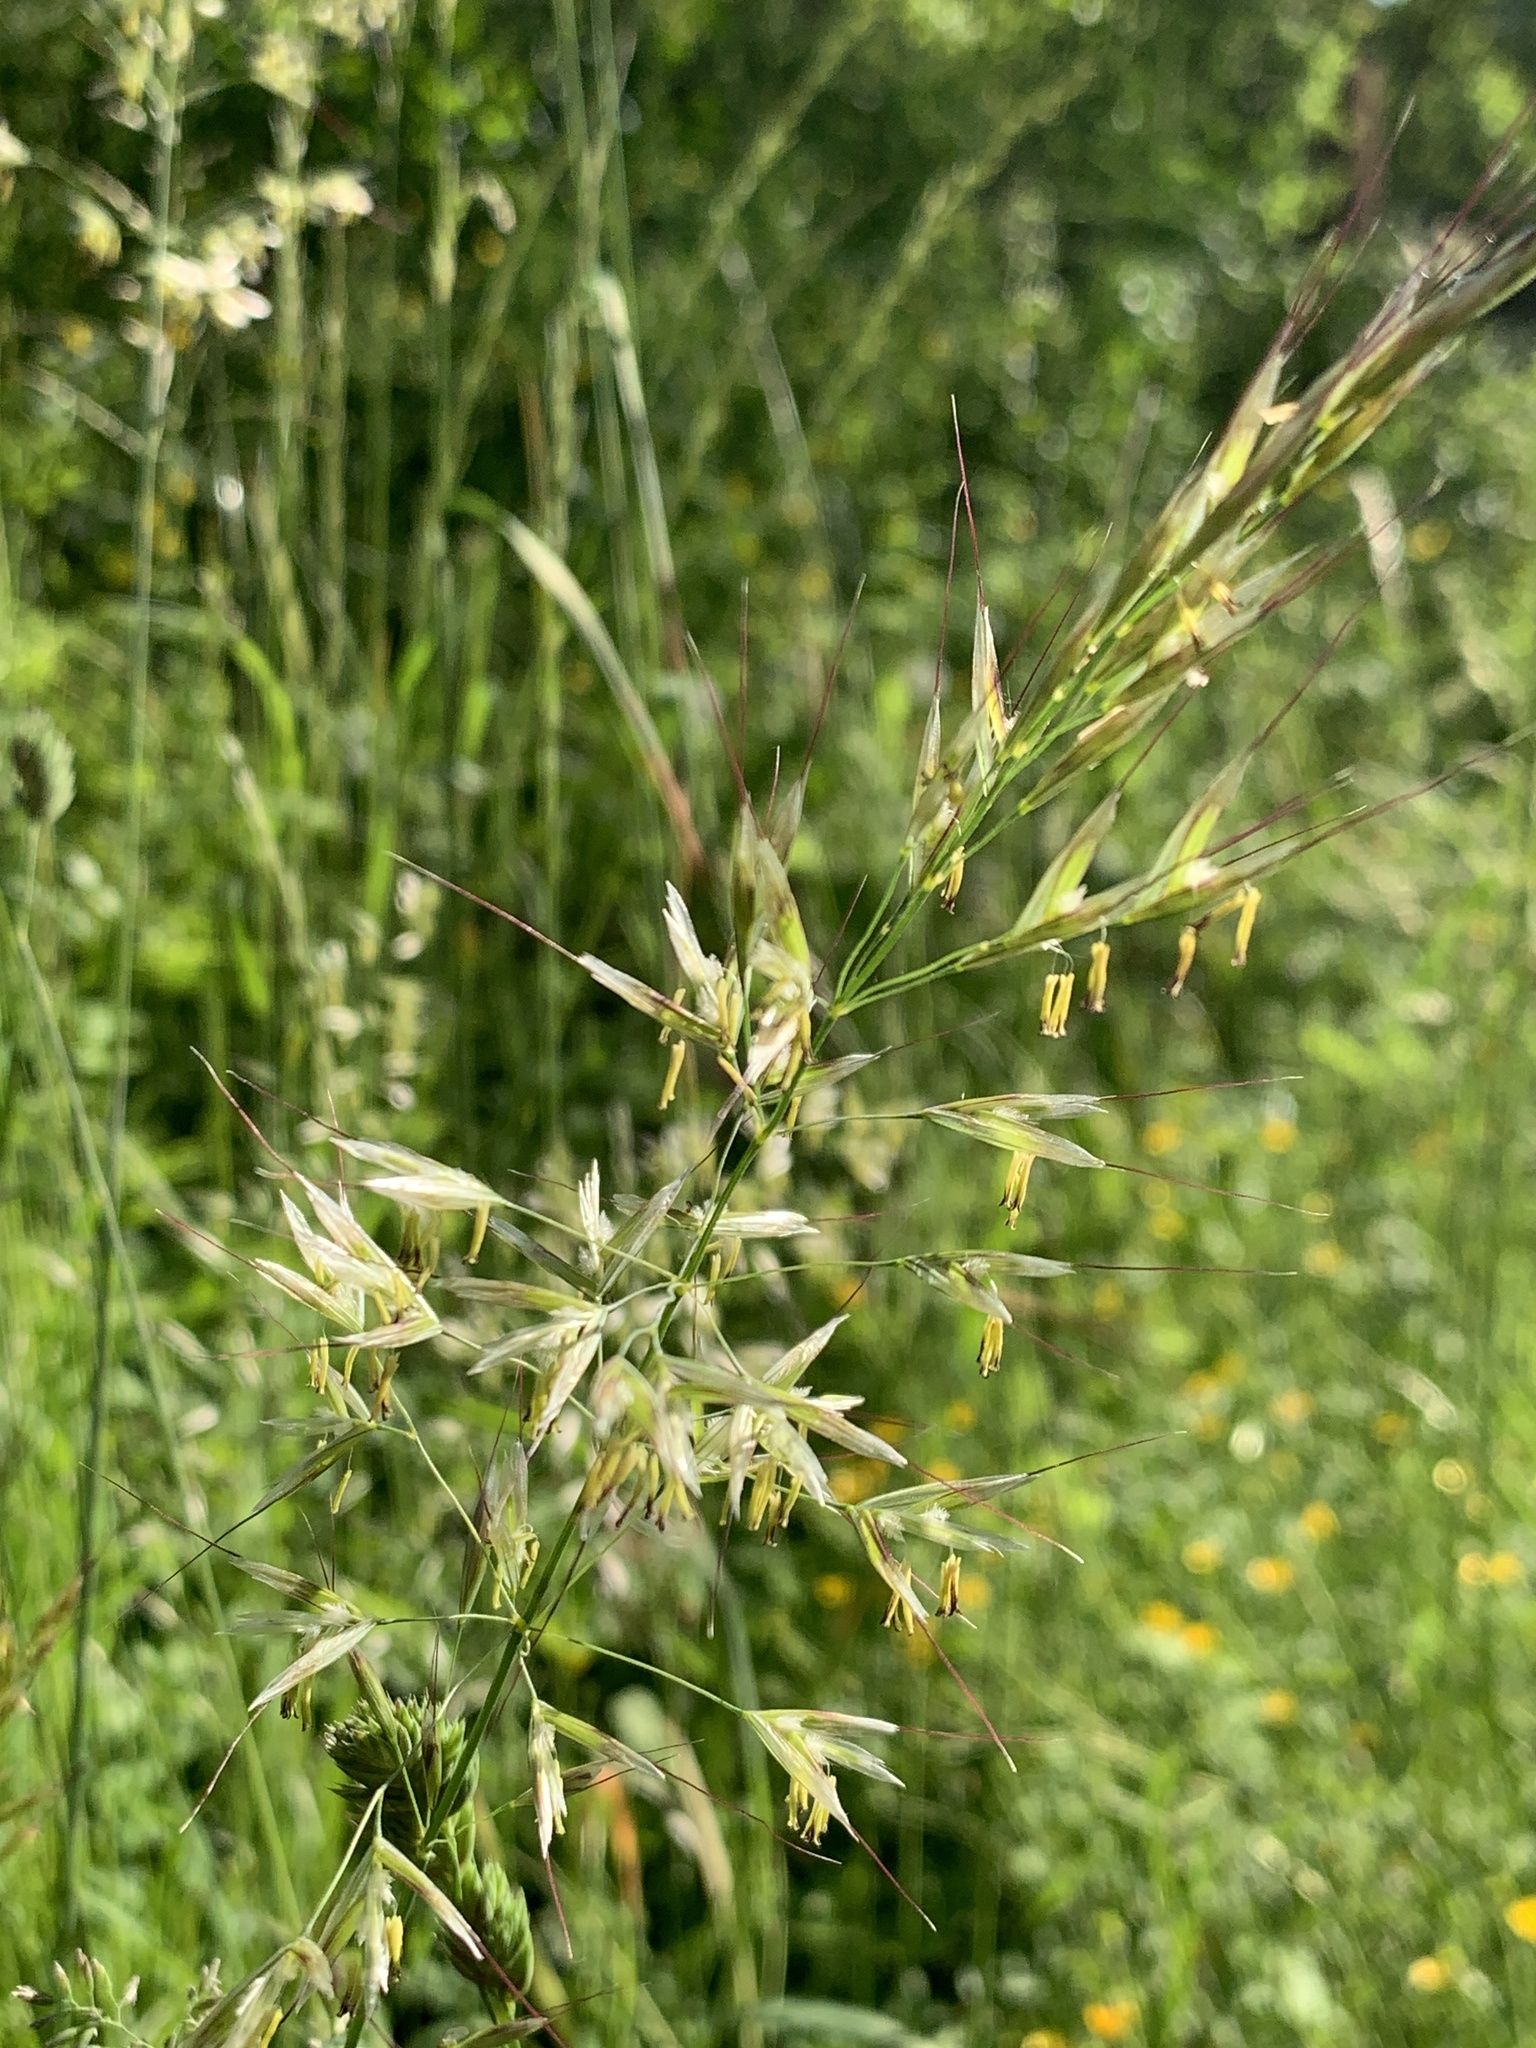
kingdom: Plantae
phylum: Tracheophyta
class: Liliopsida
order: Poales
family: Poaceae
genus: Arrhenatherum
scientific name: Arrhenatherum elatius
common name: Tall oatgrass
